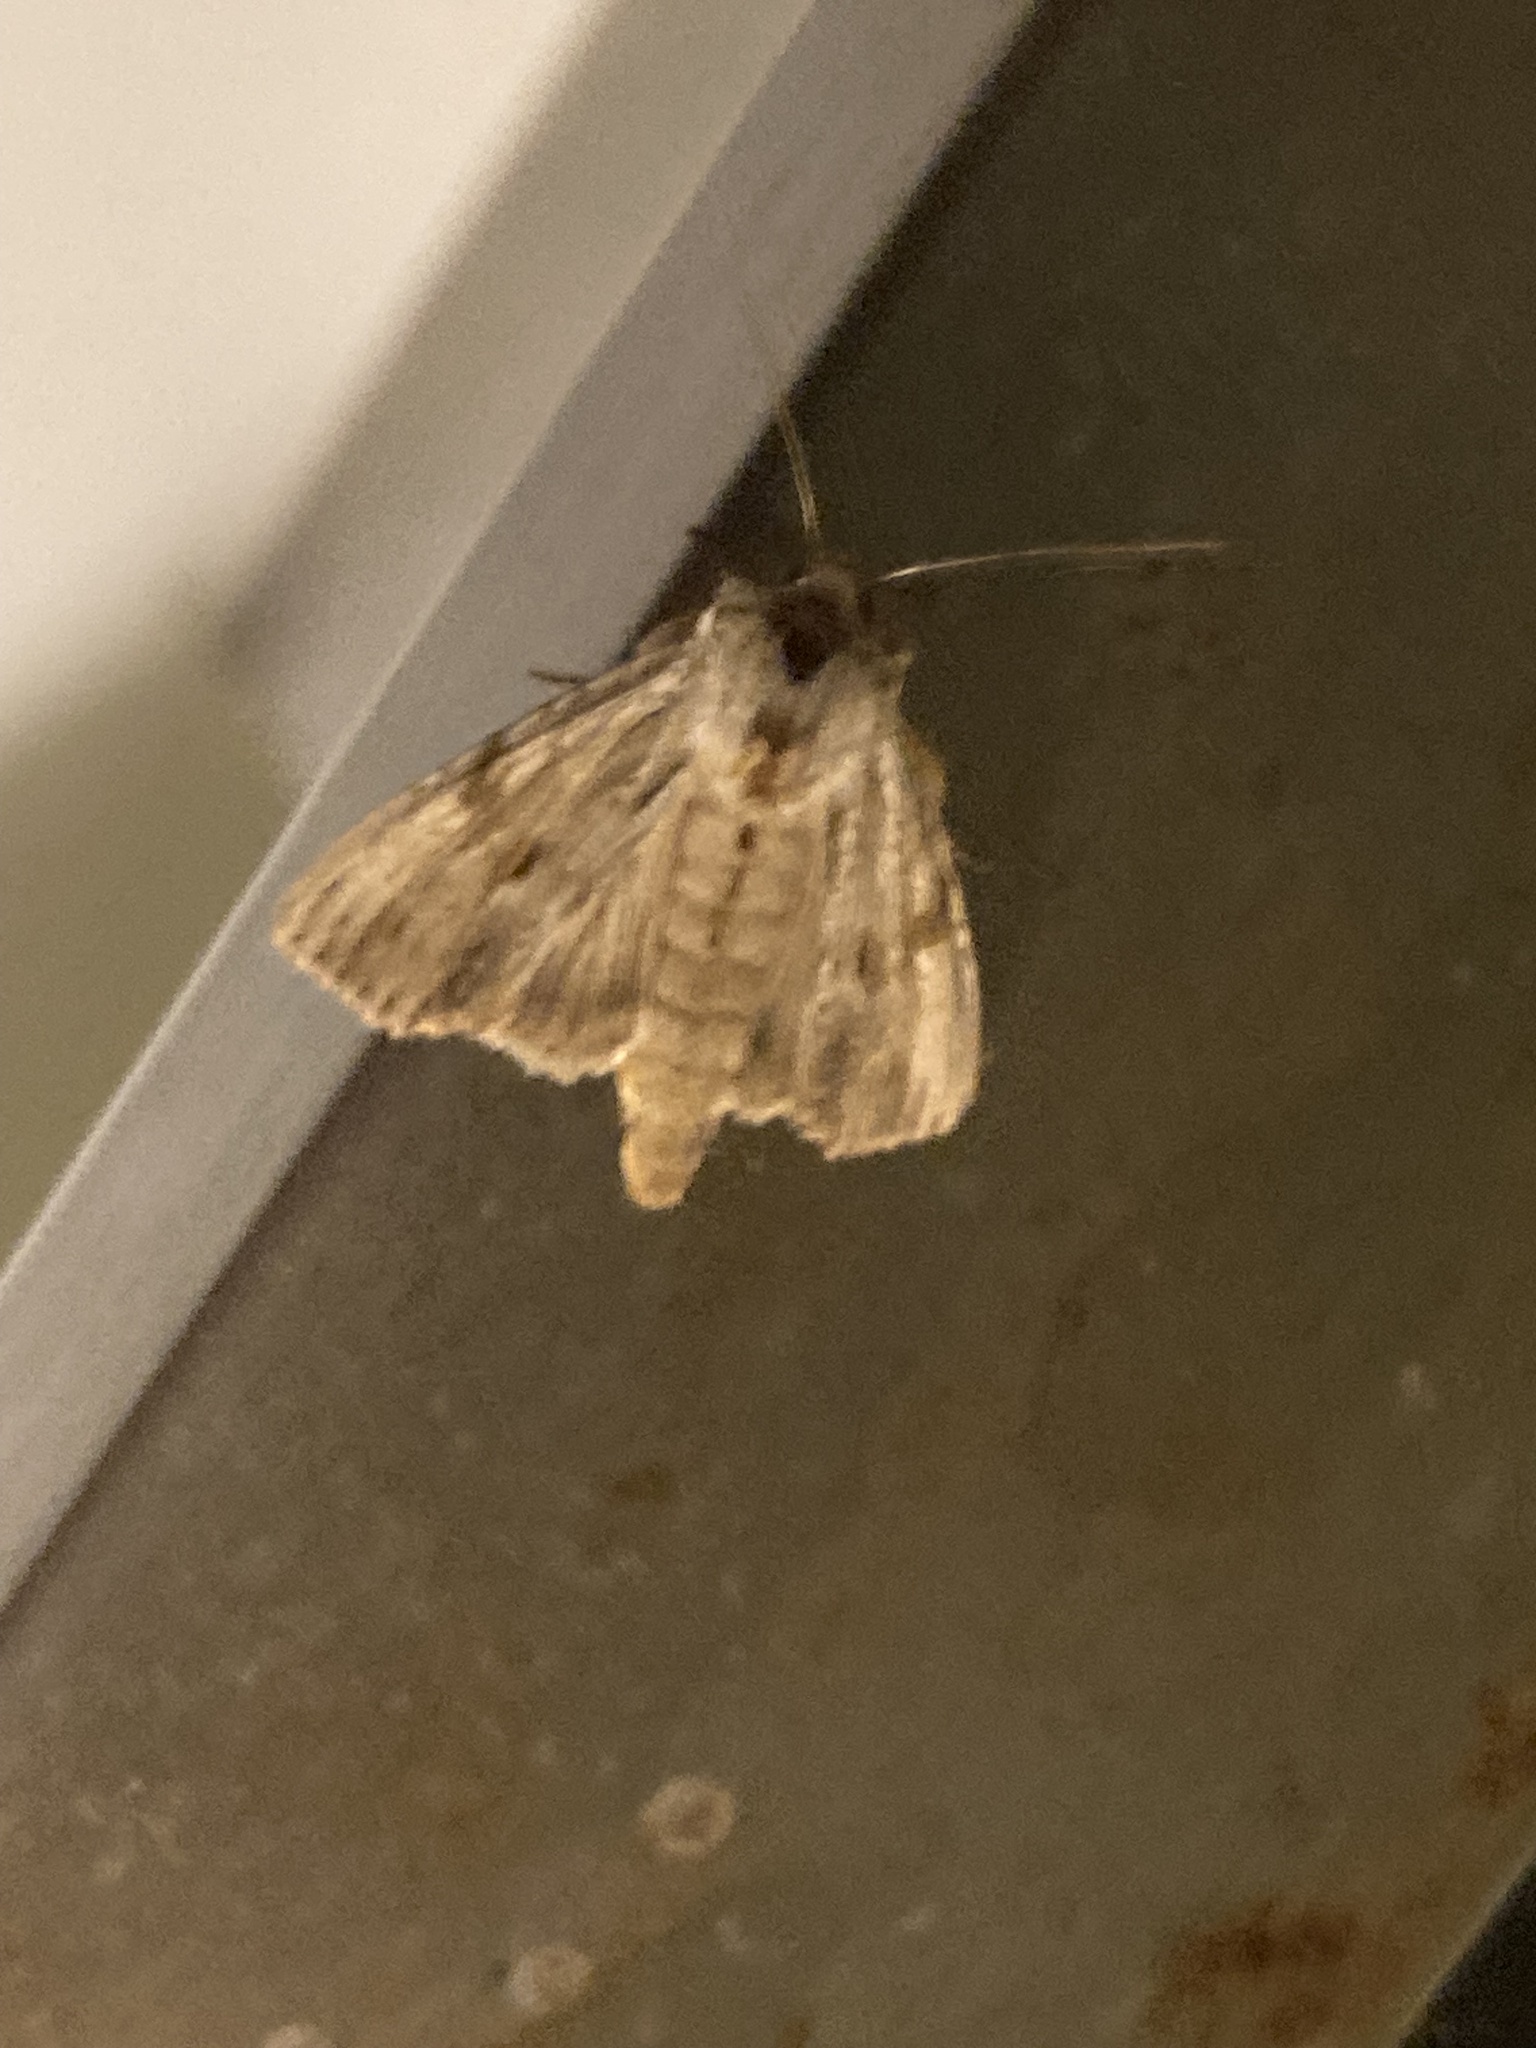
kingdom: Animalia
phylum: Arthropoda
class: Insecta
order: Lepidoptera
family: Noctuidae
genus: Apamea
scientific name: Apamea lithoxylaea
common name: Light arches
